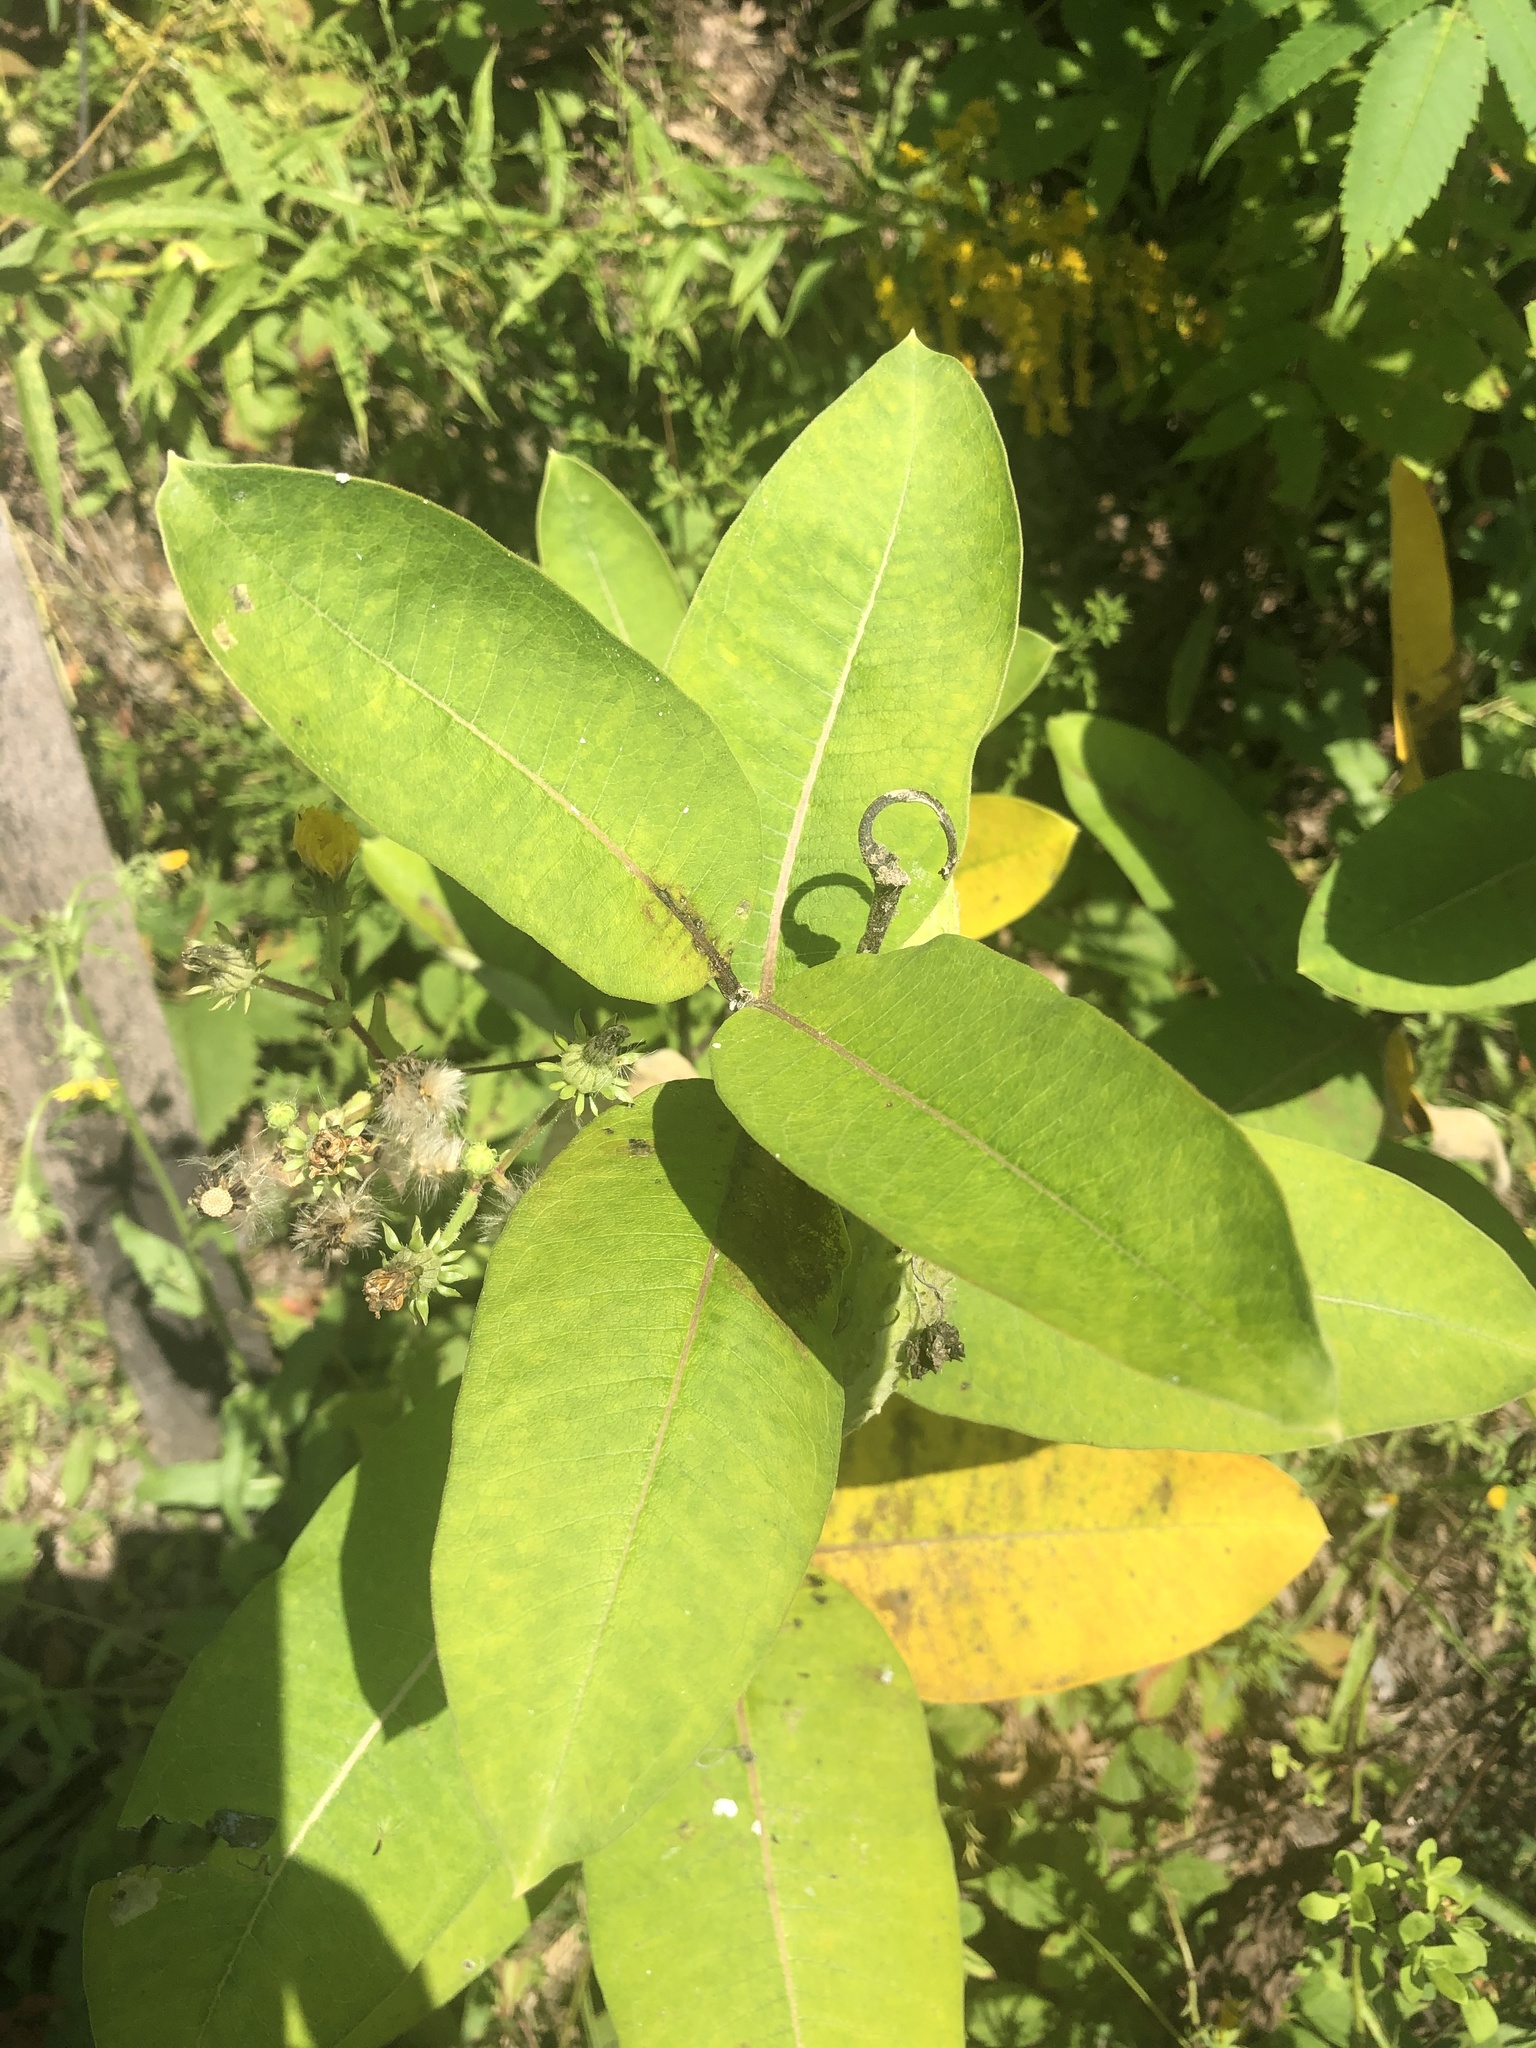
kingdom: Plantae
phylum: Tracheophyta
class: Magnoliopsida
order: Gentianales
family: Apocynaceae
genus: Asclepias
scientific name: Asclepias syriaca
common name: Common milkweed
